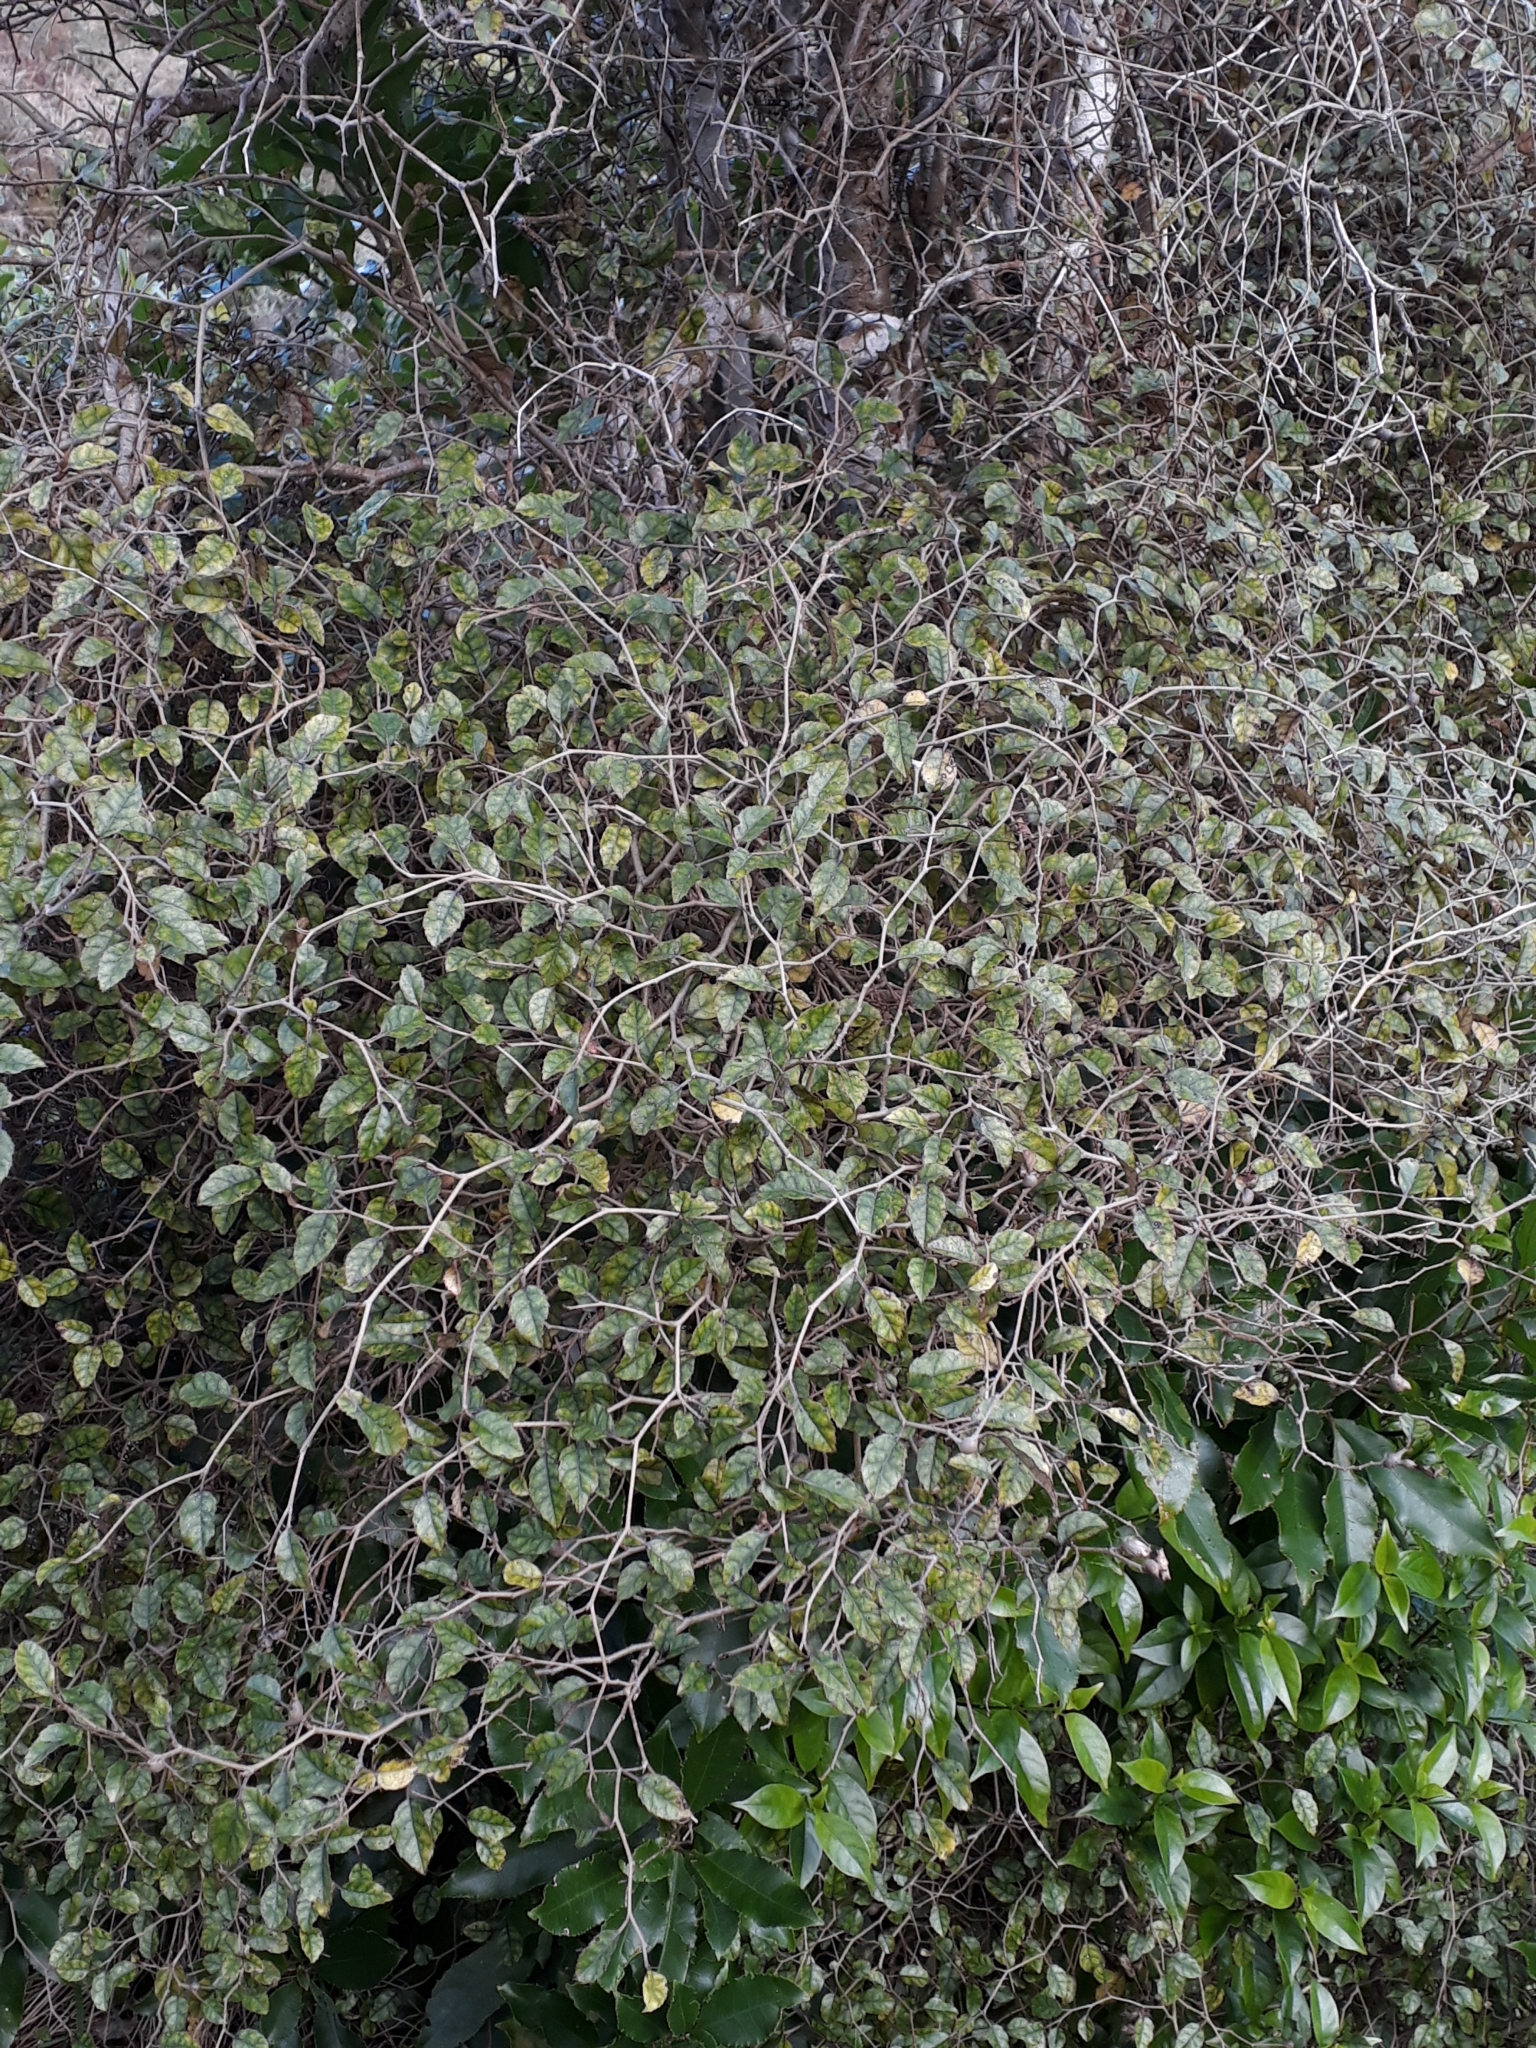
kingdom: Plantae
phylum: Tracheophyta
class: Magnoliopsida
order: Asterales
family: Rousseaceae
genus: Carpodetus
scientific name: Carpodetus serratus
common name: White mapau
